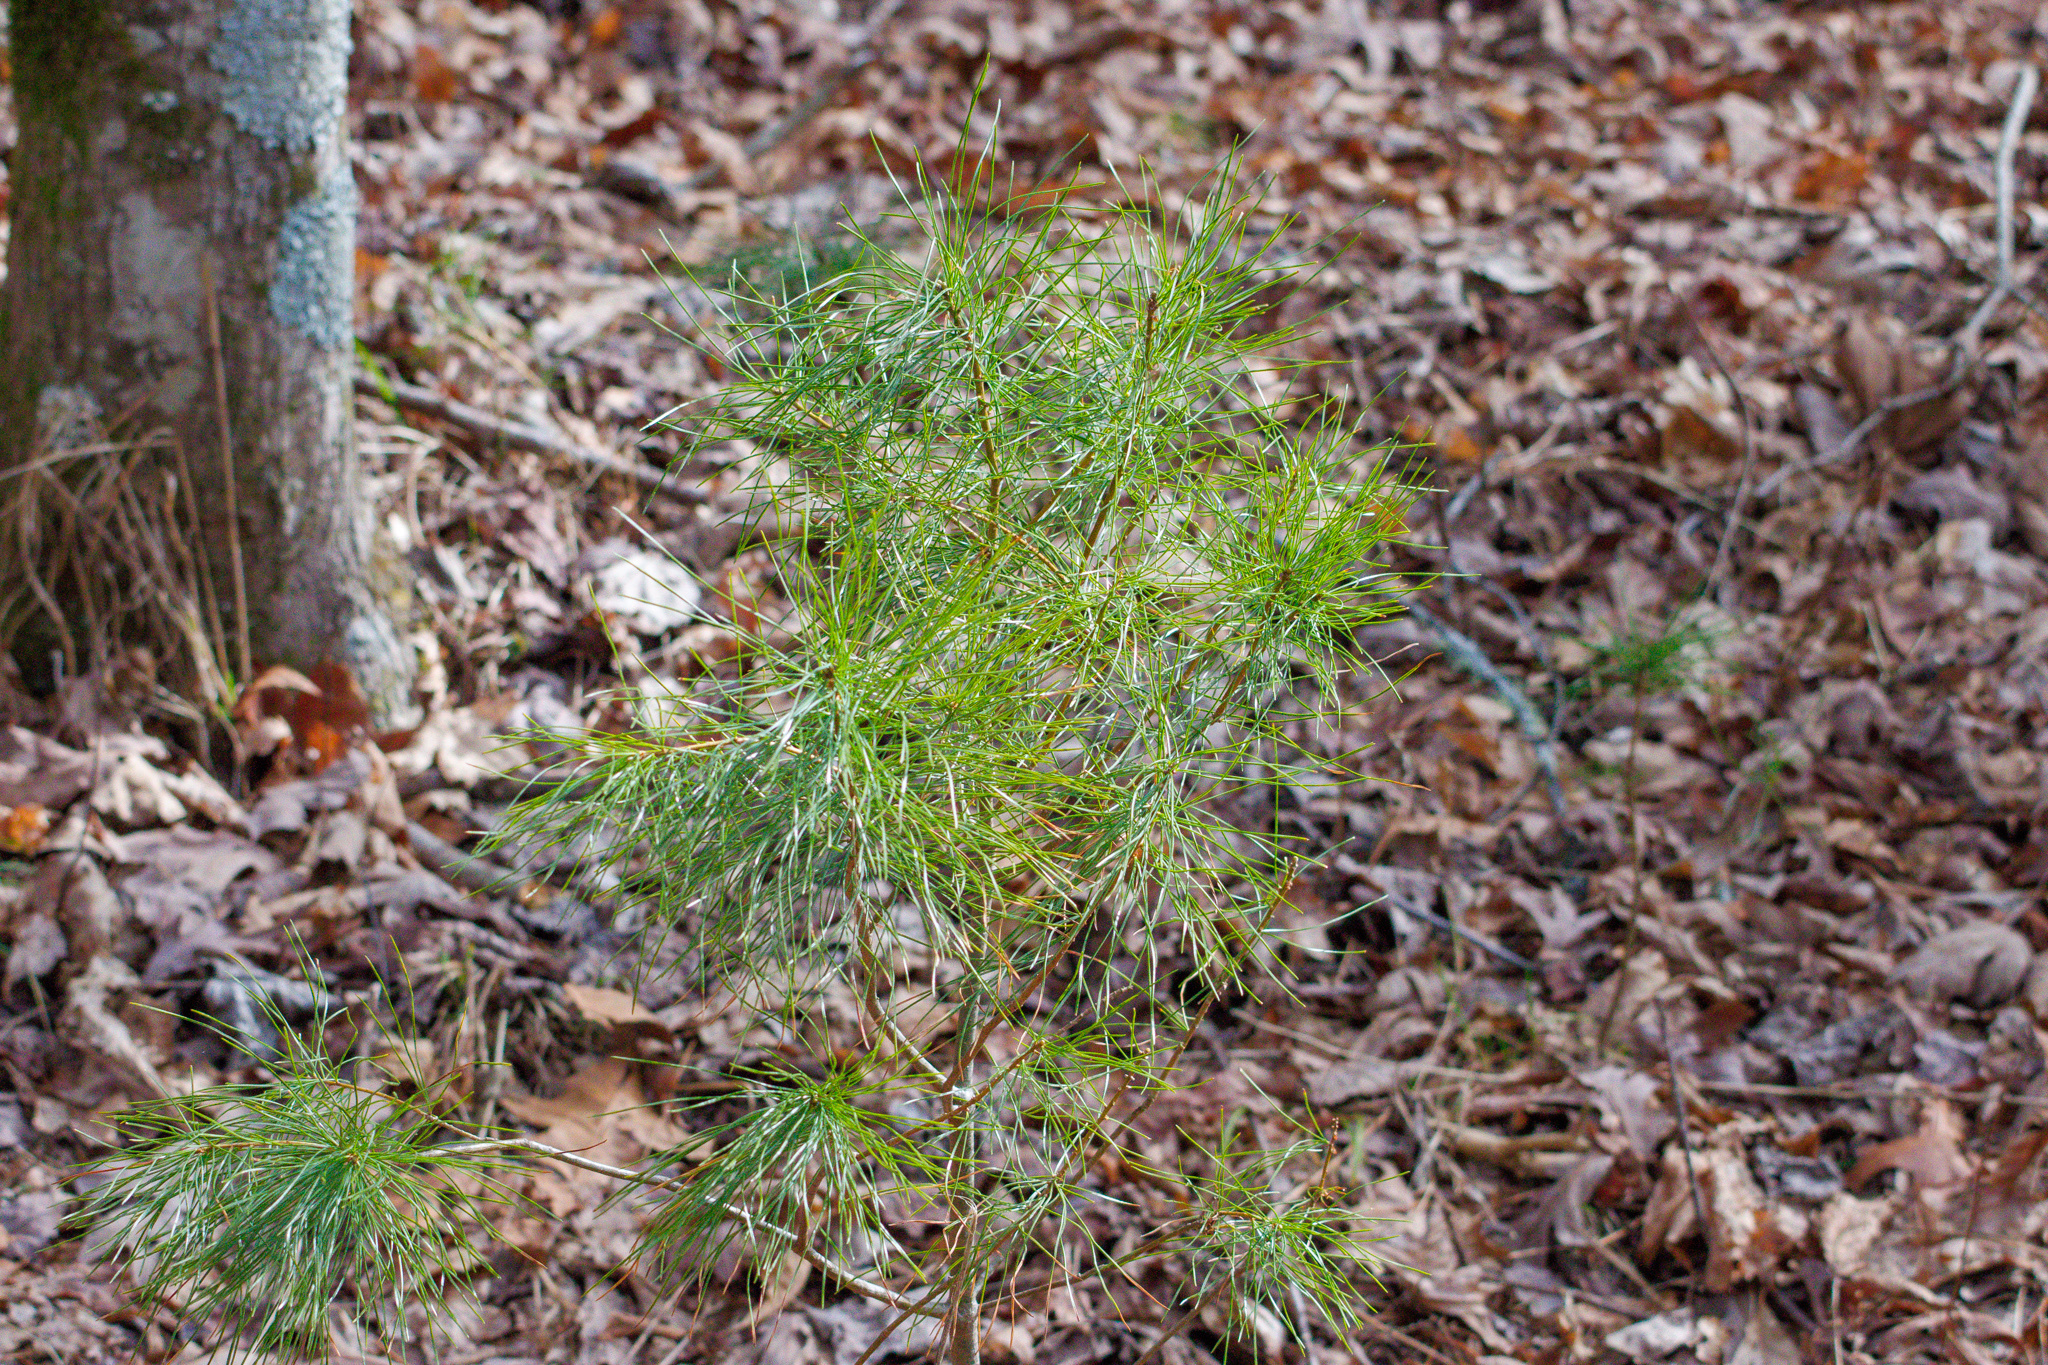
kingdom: Plantae
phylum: Tracheophyta
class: Pinopsida
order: Pinales
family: Pinaceae
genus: Pinus
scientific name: Pinus strobus
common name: Weymouth pine
